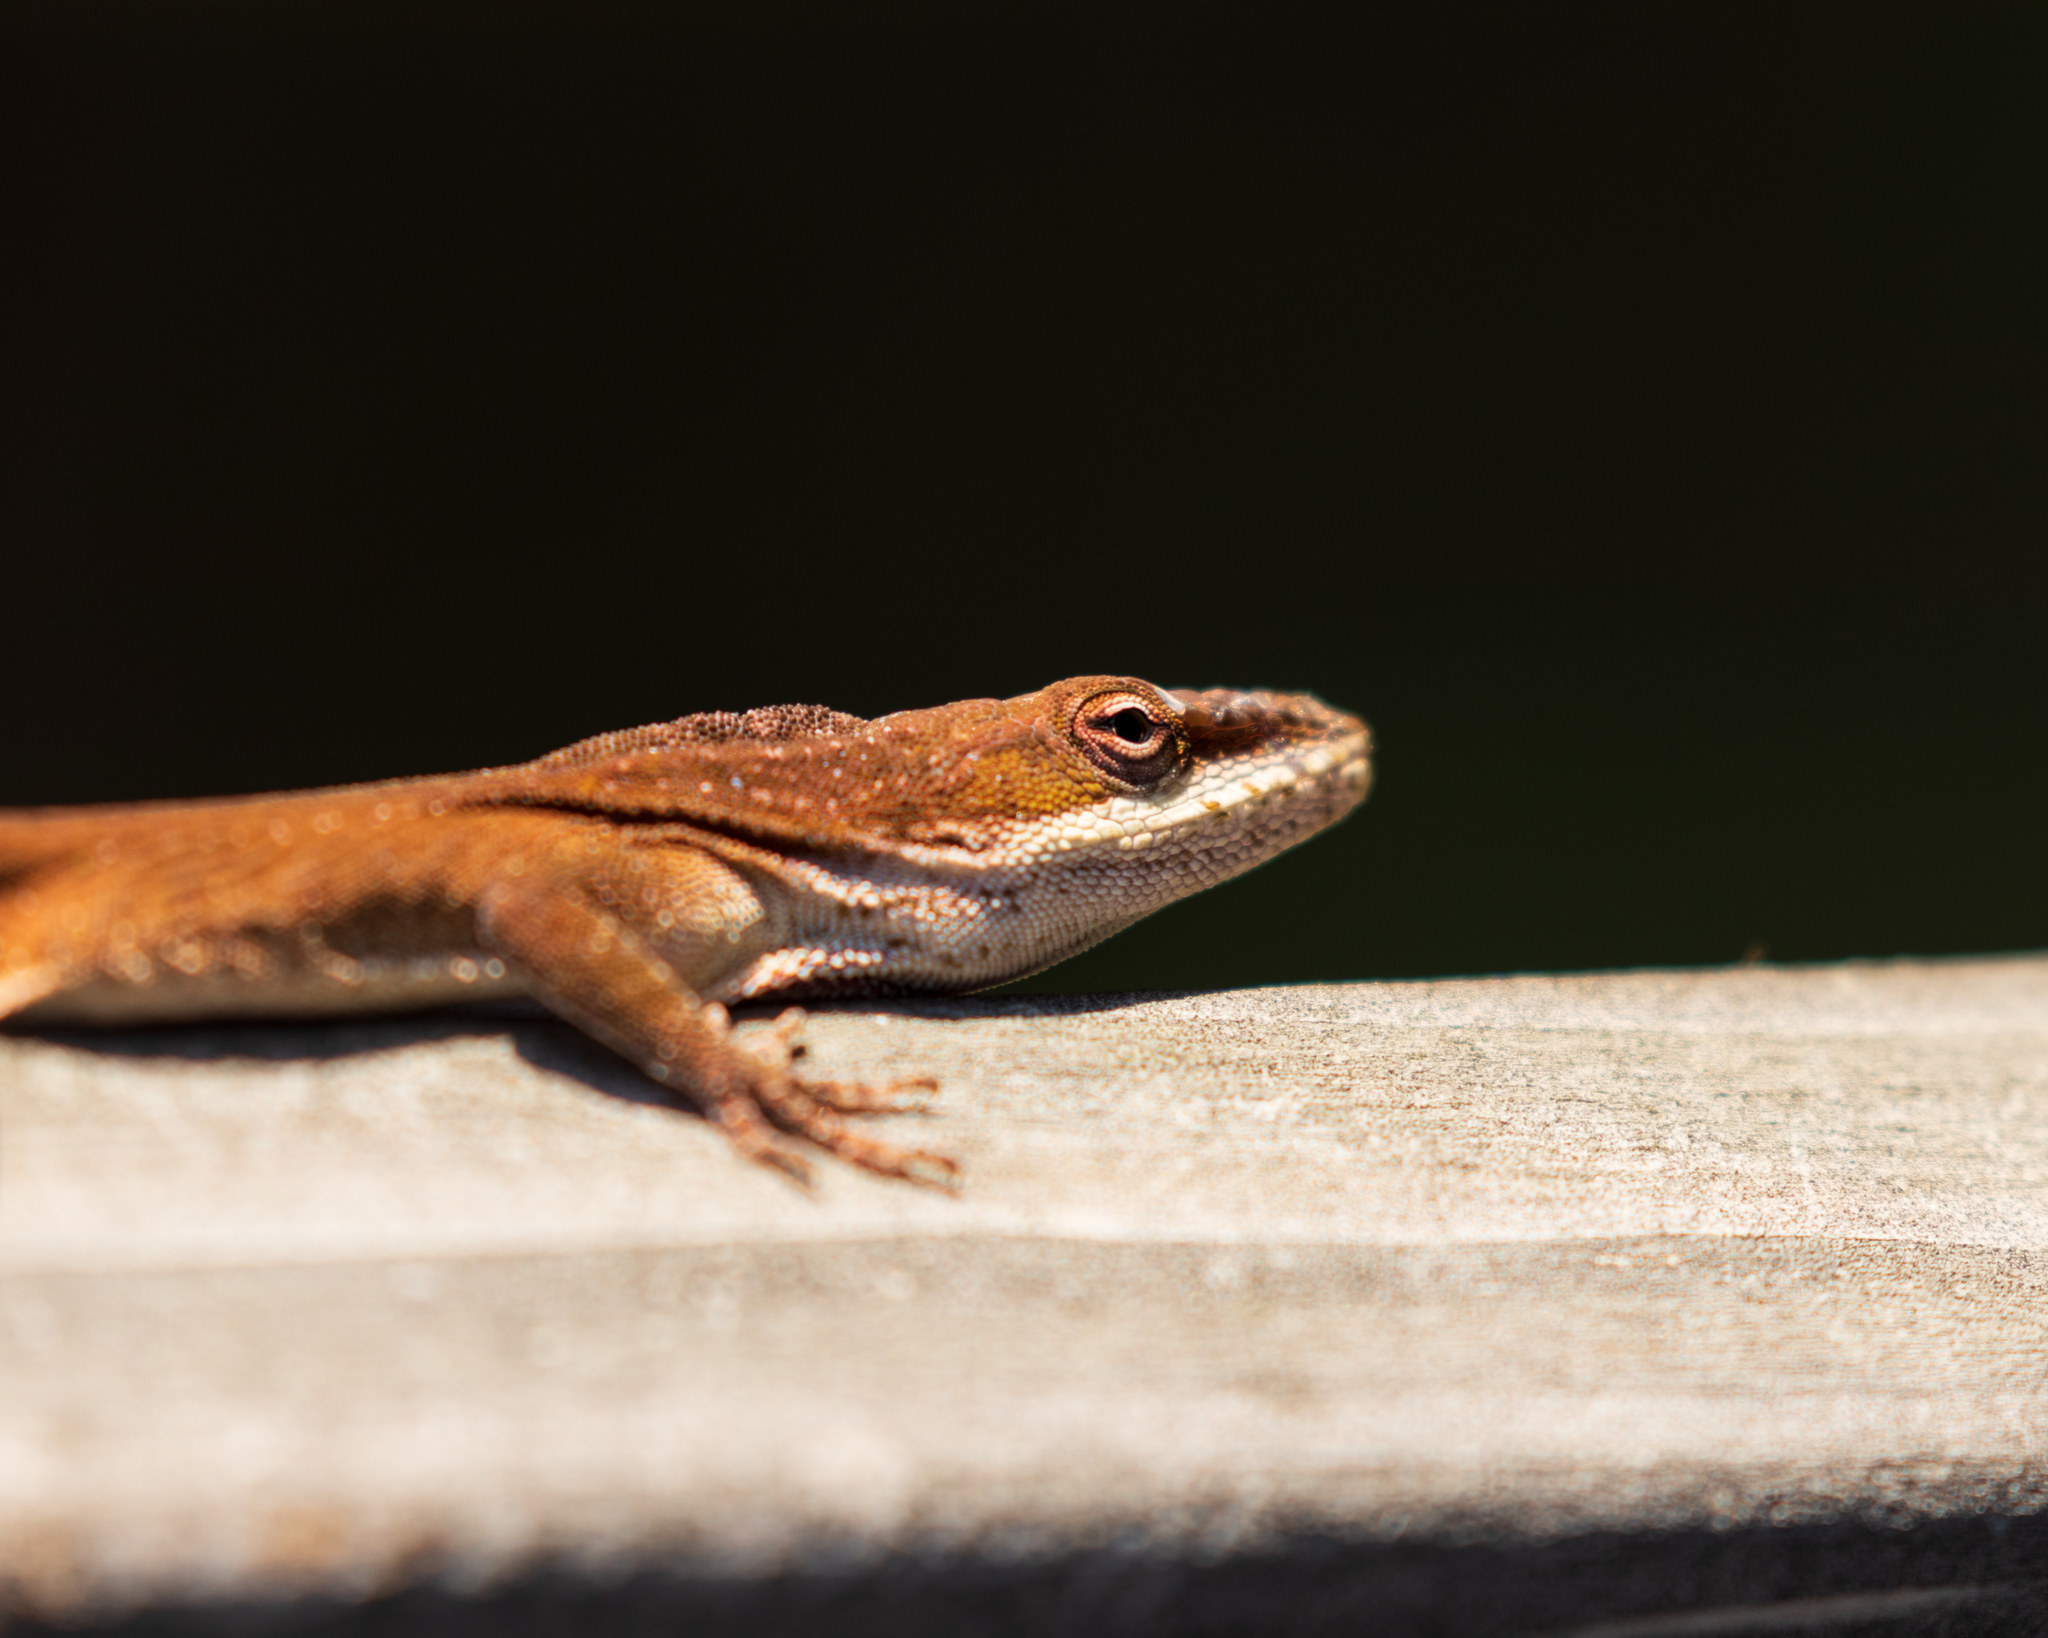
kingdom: Animalia
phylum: Chordata
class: Squamata
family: Dactyloidae
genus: Anolis
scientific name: Anolis carolinensis
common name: Green anole
